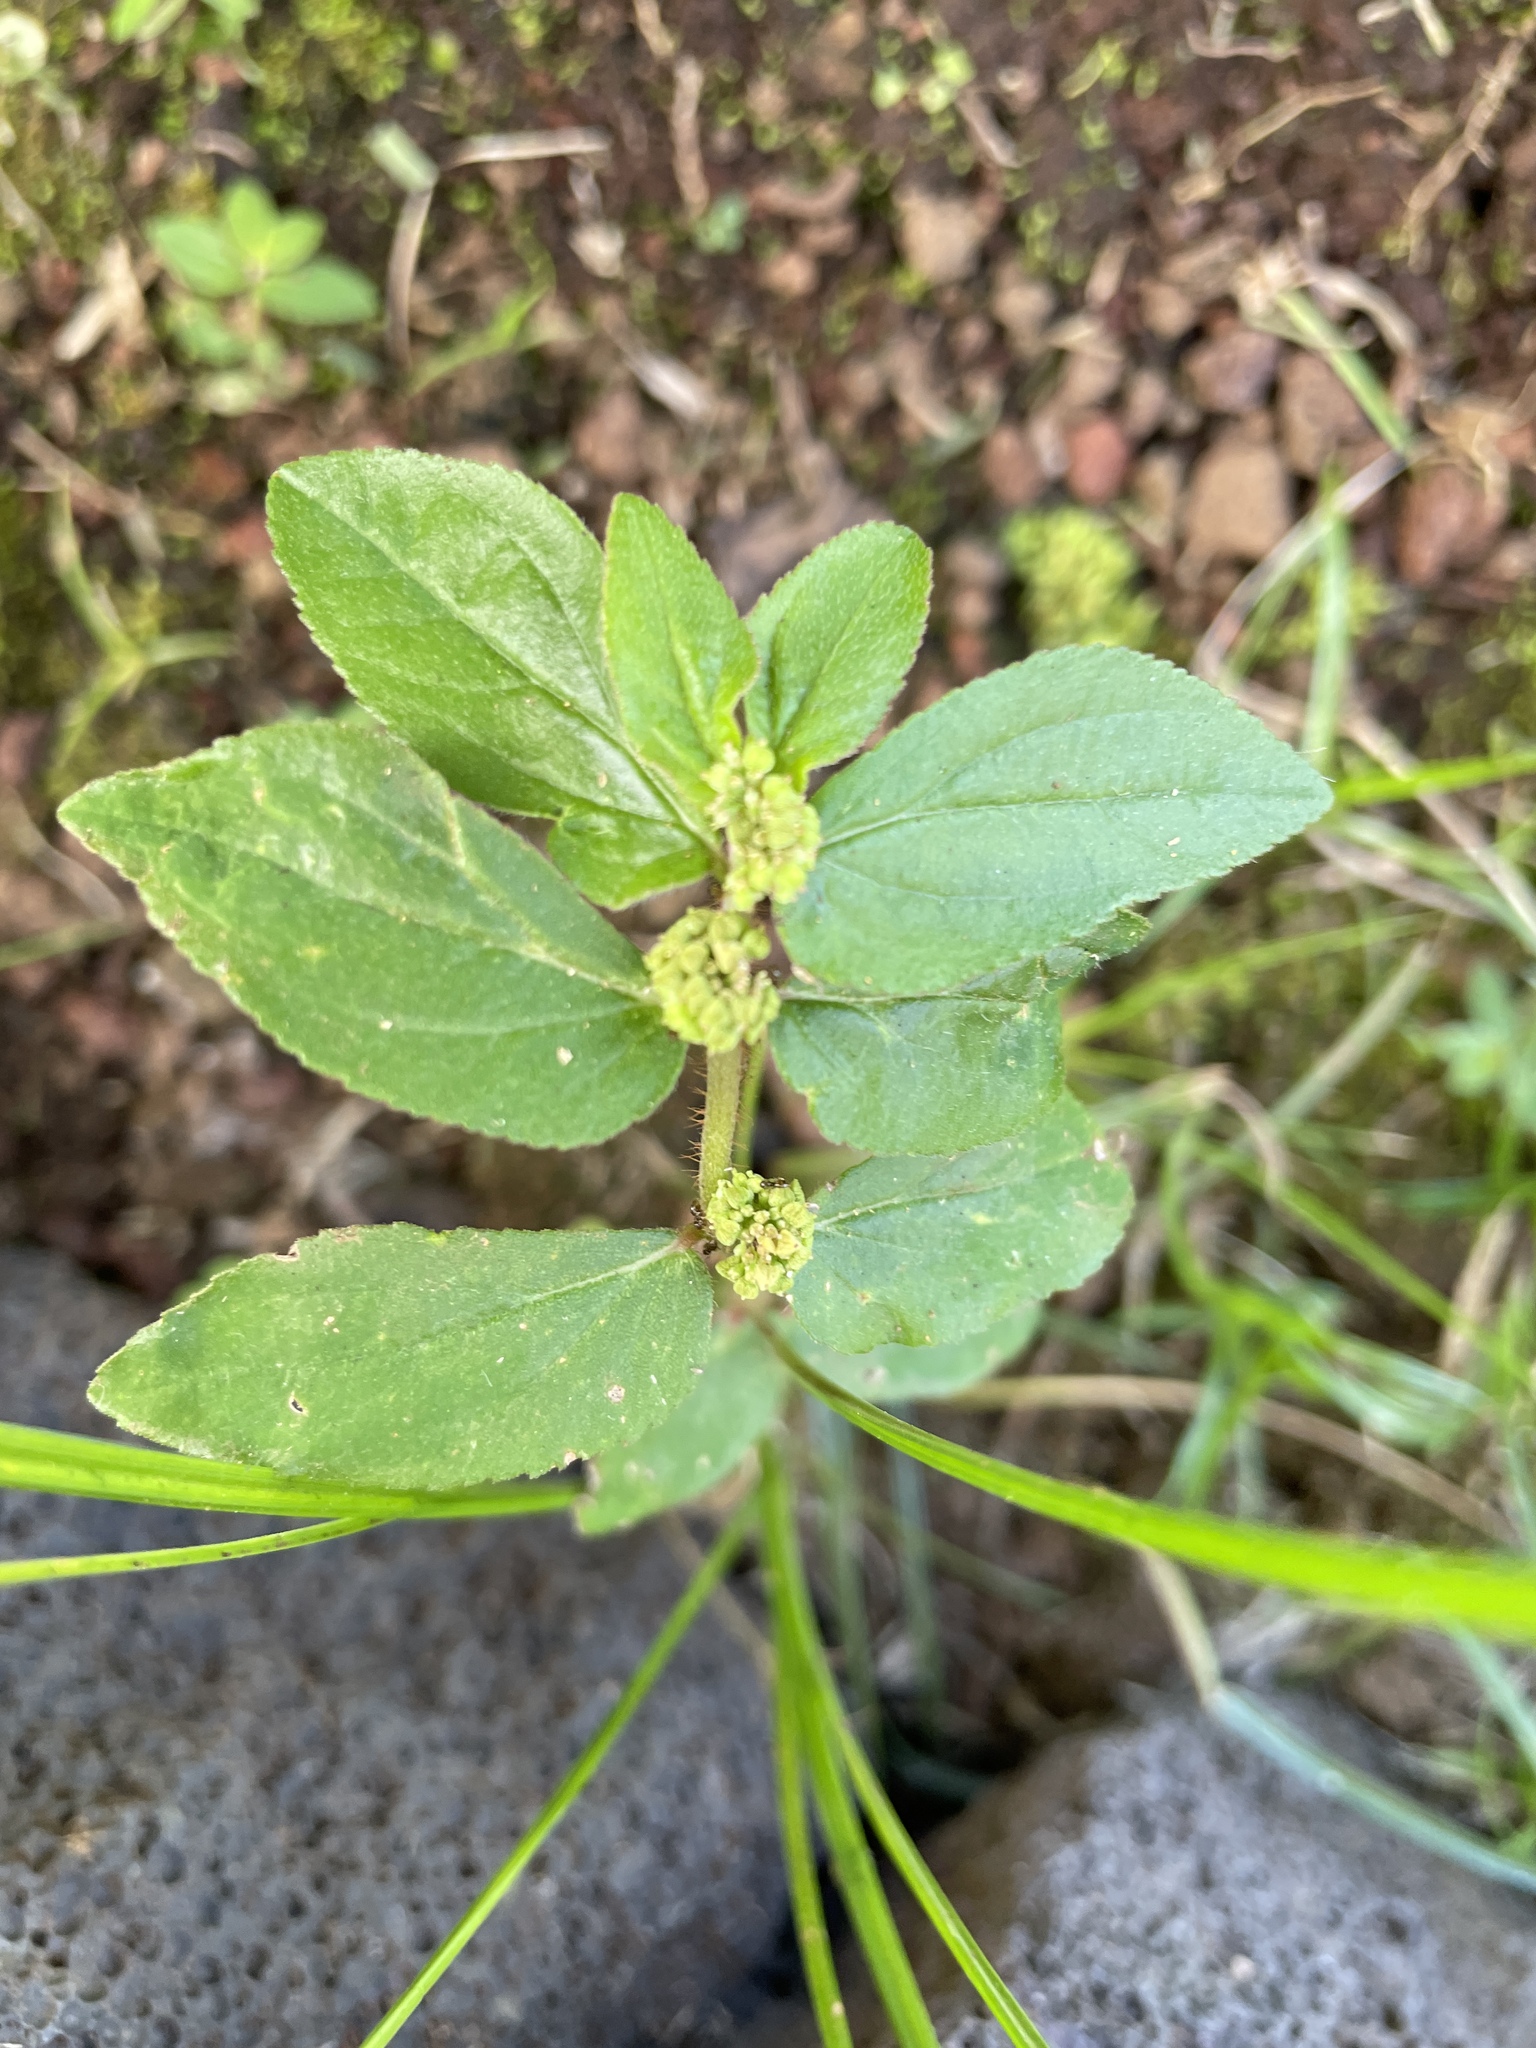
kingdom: Plantae
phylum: Tracheophyta
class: Magnoliopsida
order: Malpighiales
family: Euphorbiaceae
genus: Euphorbia
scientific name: Euphorbia hirta
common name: Pillpod sandmat
